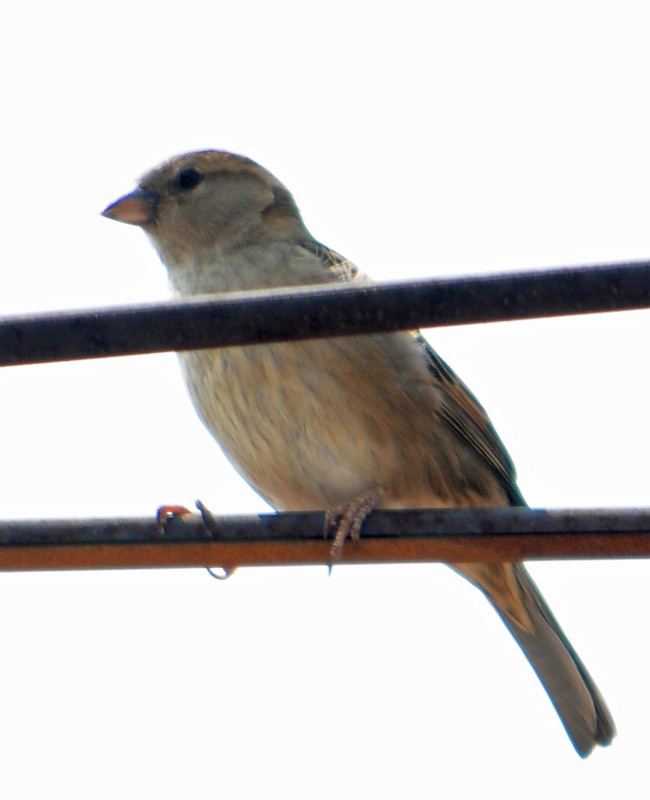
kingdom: Animalia
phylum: Chordata
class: Aves
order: Passeriformes
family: Passeridae
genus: Passer
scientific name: Passer domesticus
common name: House sparrow
